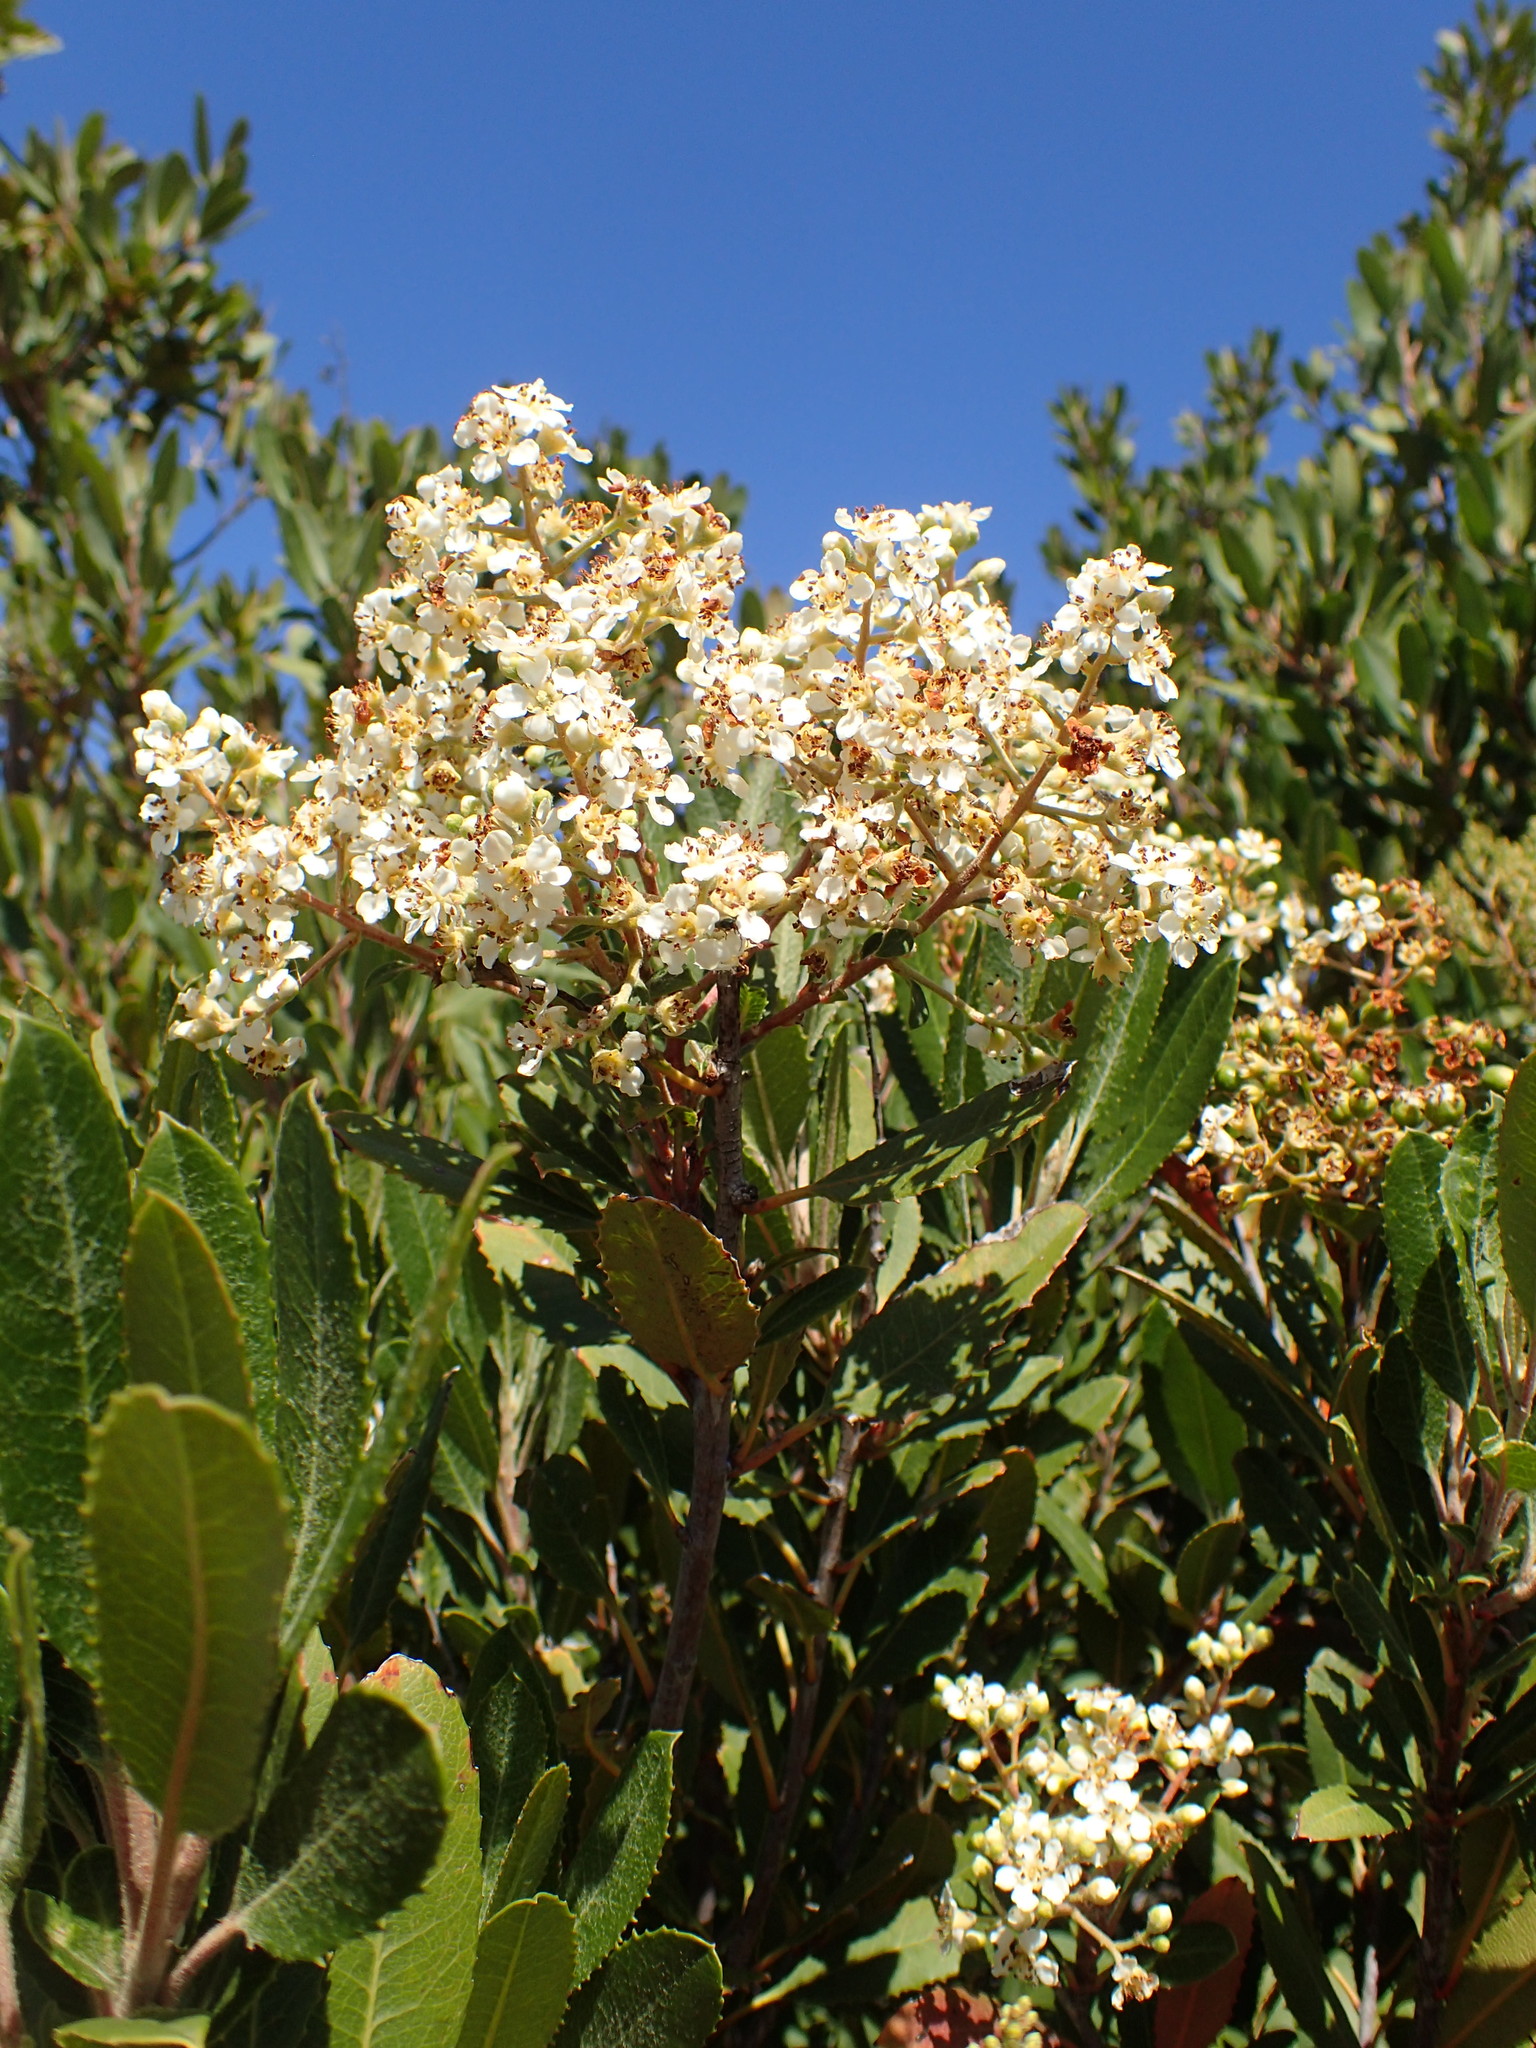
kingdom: Plantae
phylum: Tracheophyta
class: Magnoliopsida
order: Rosales
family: Rosaceae
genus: Heteromeles
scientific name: Heteromeles arbutifolia
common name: California-holly
